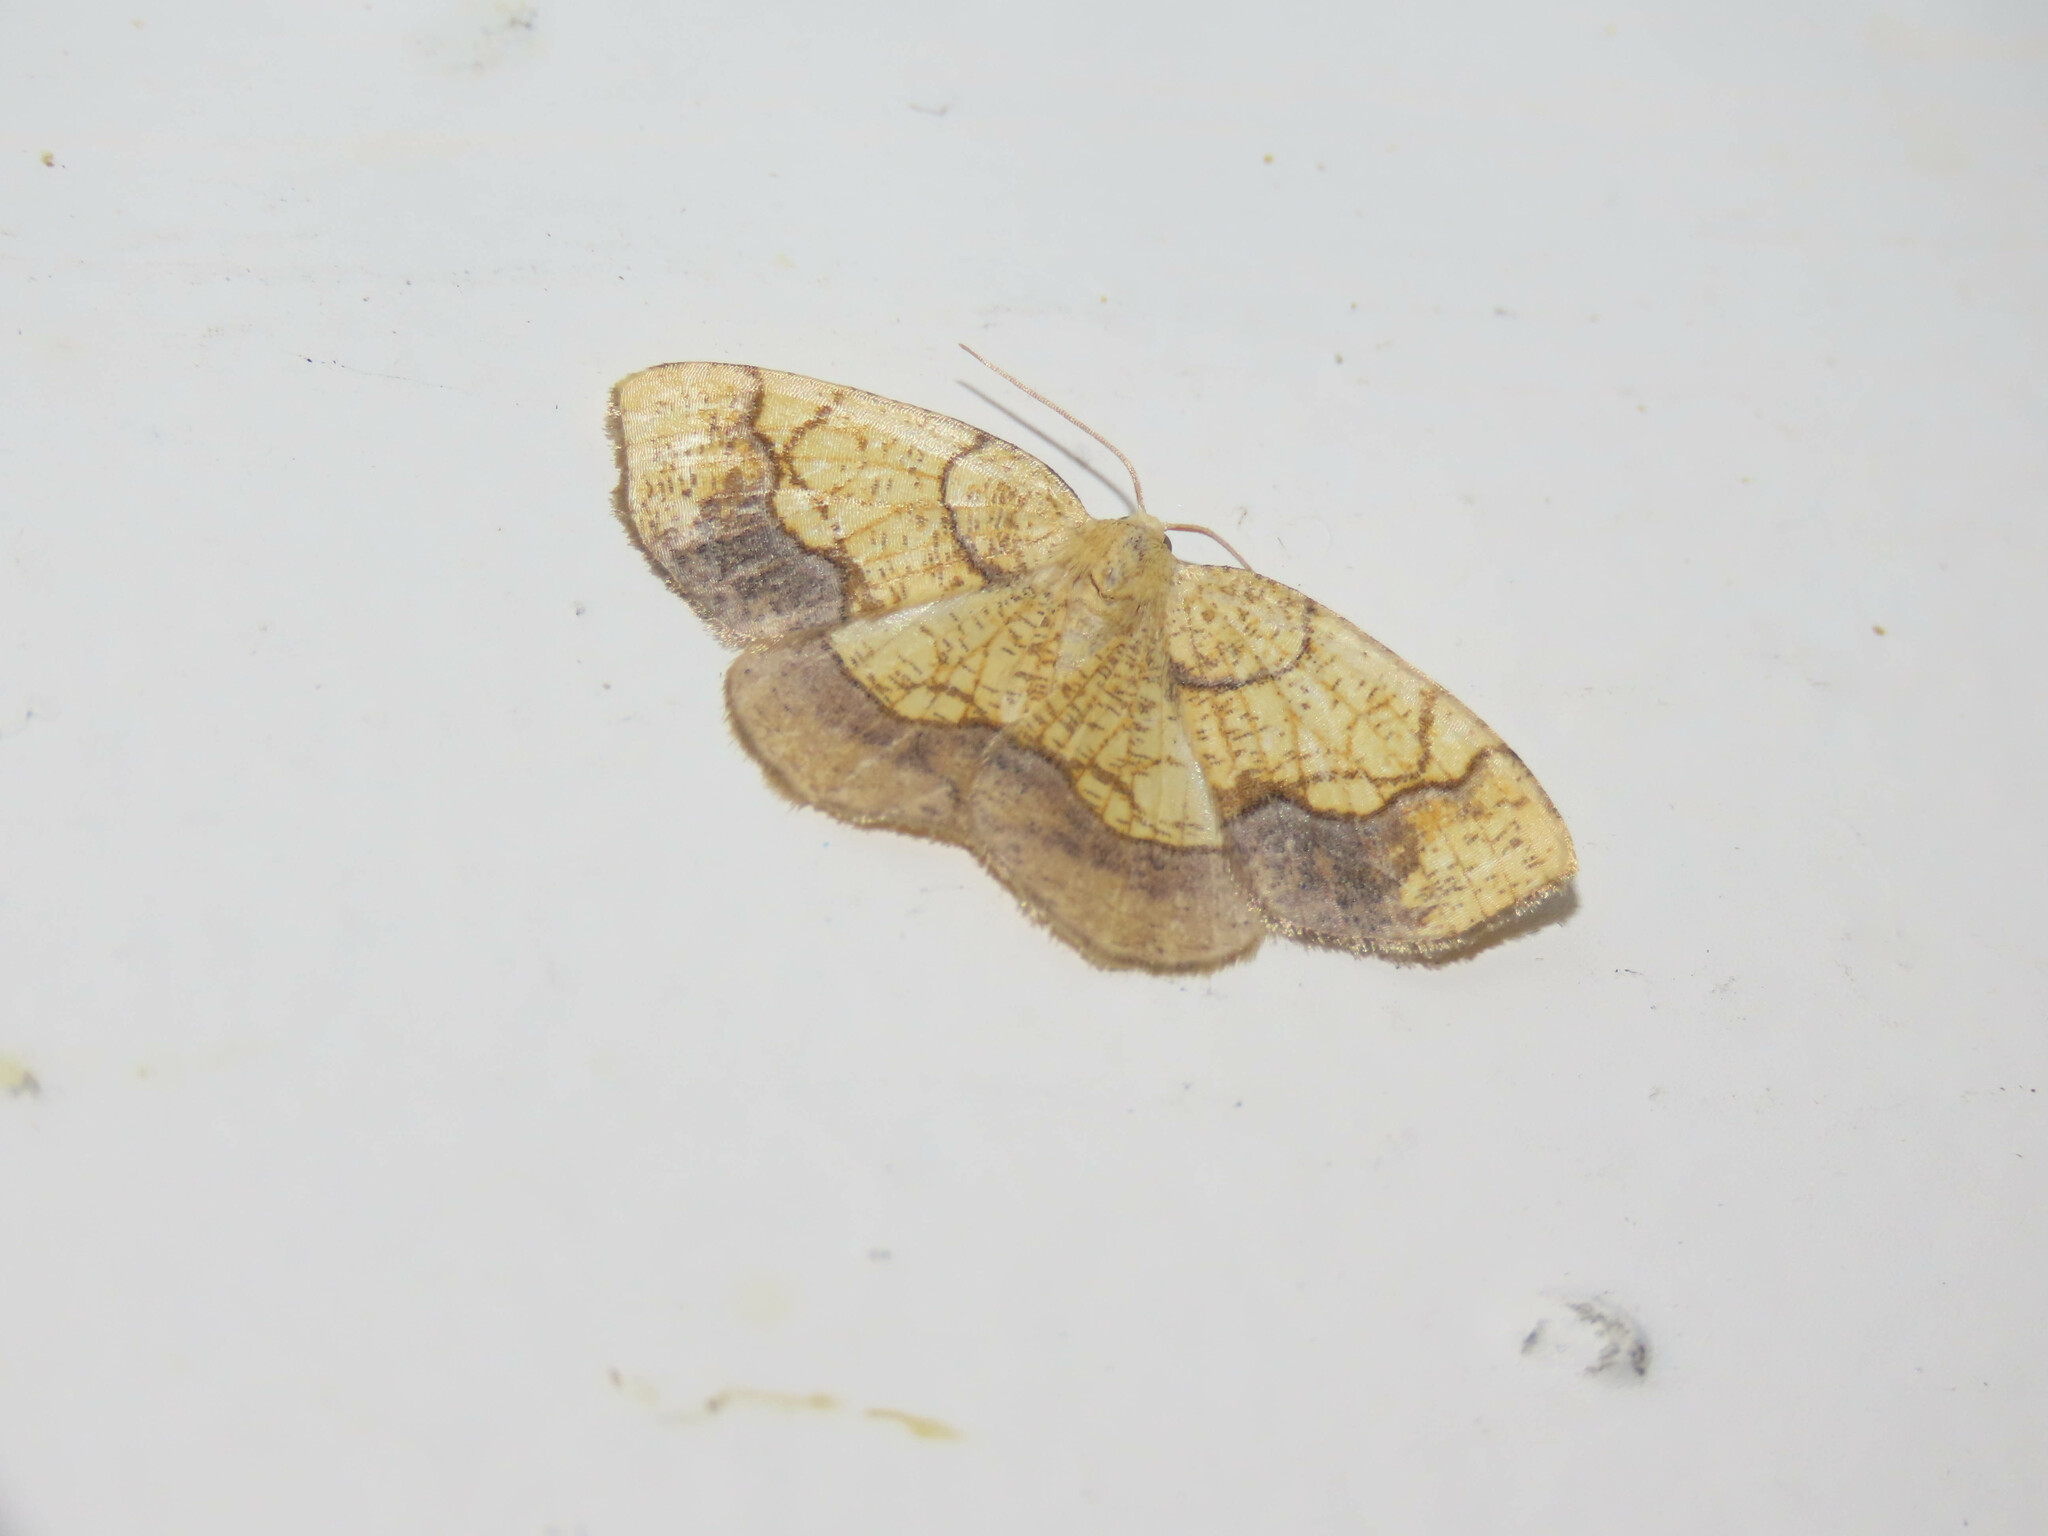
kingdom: Animalia
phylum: Arthropoda
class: Insecta
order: Lepidoptera
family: Geometridae
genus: Nematocampa
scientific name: Nematocampa resistaria
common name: Horned spanworm moth
